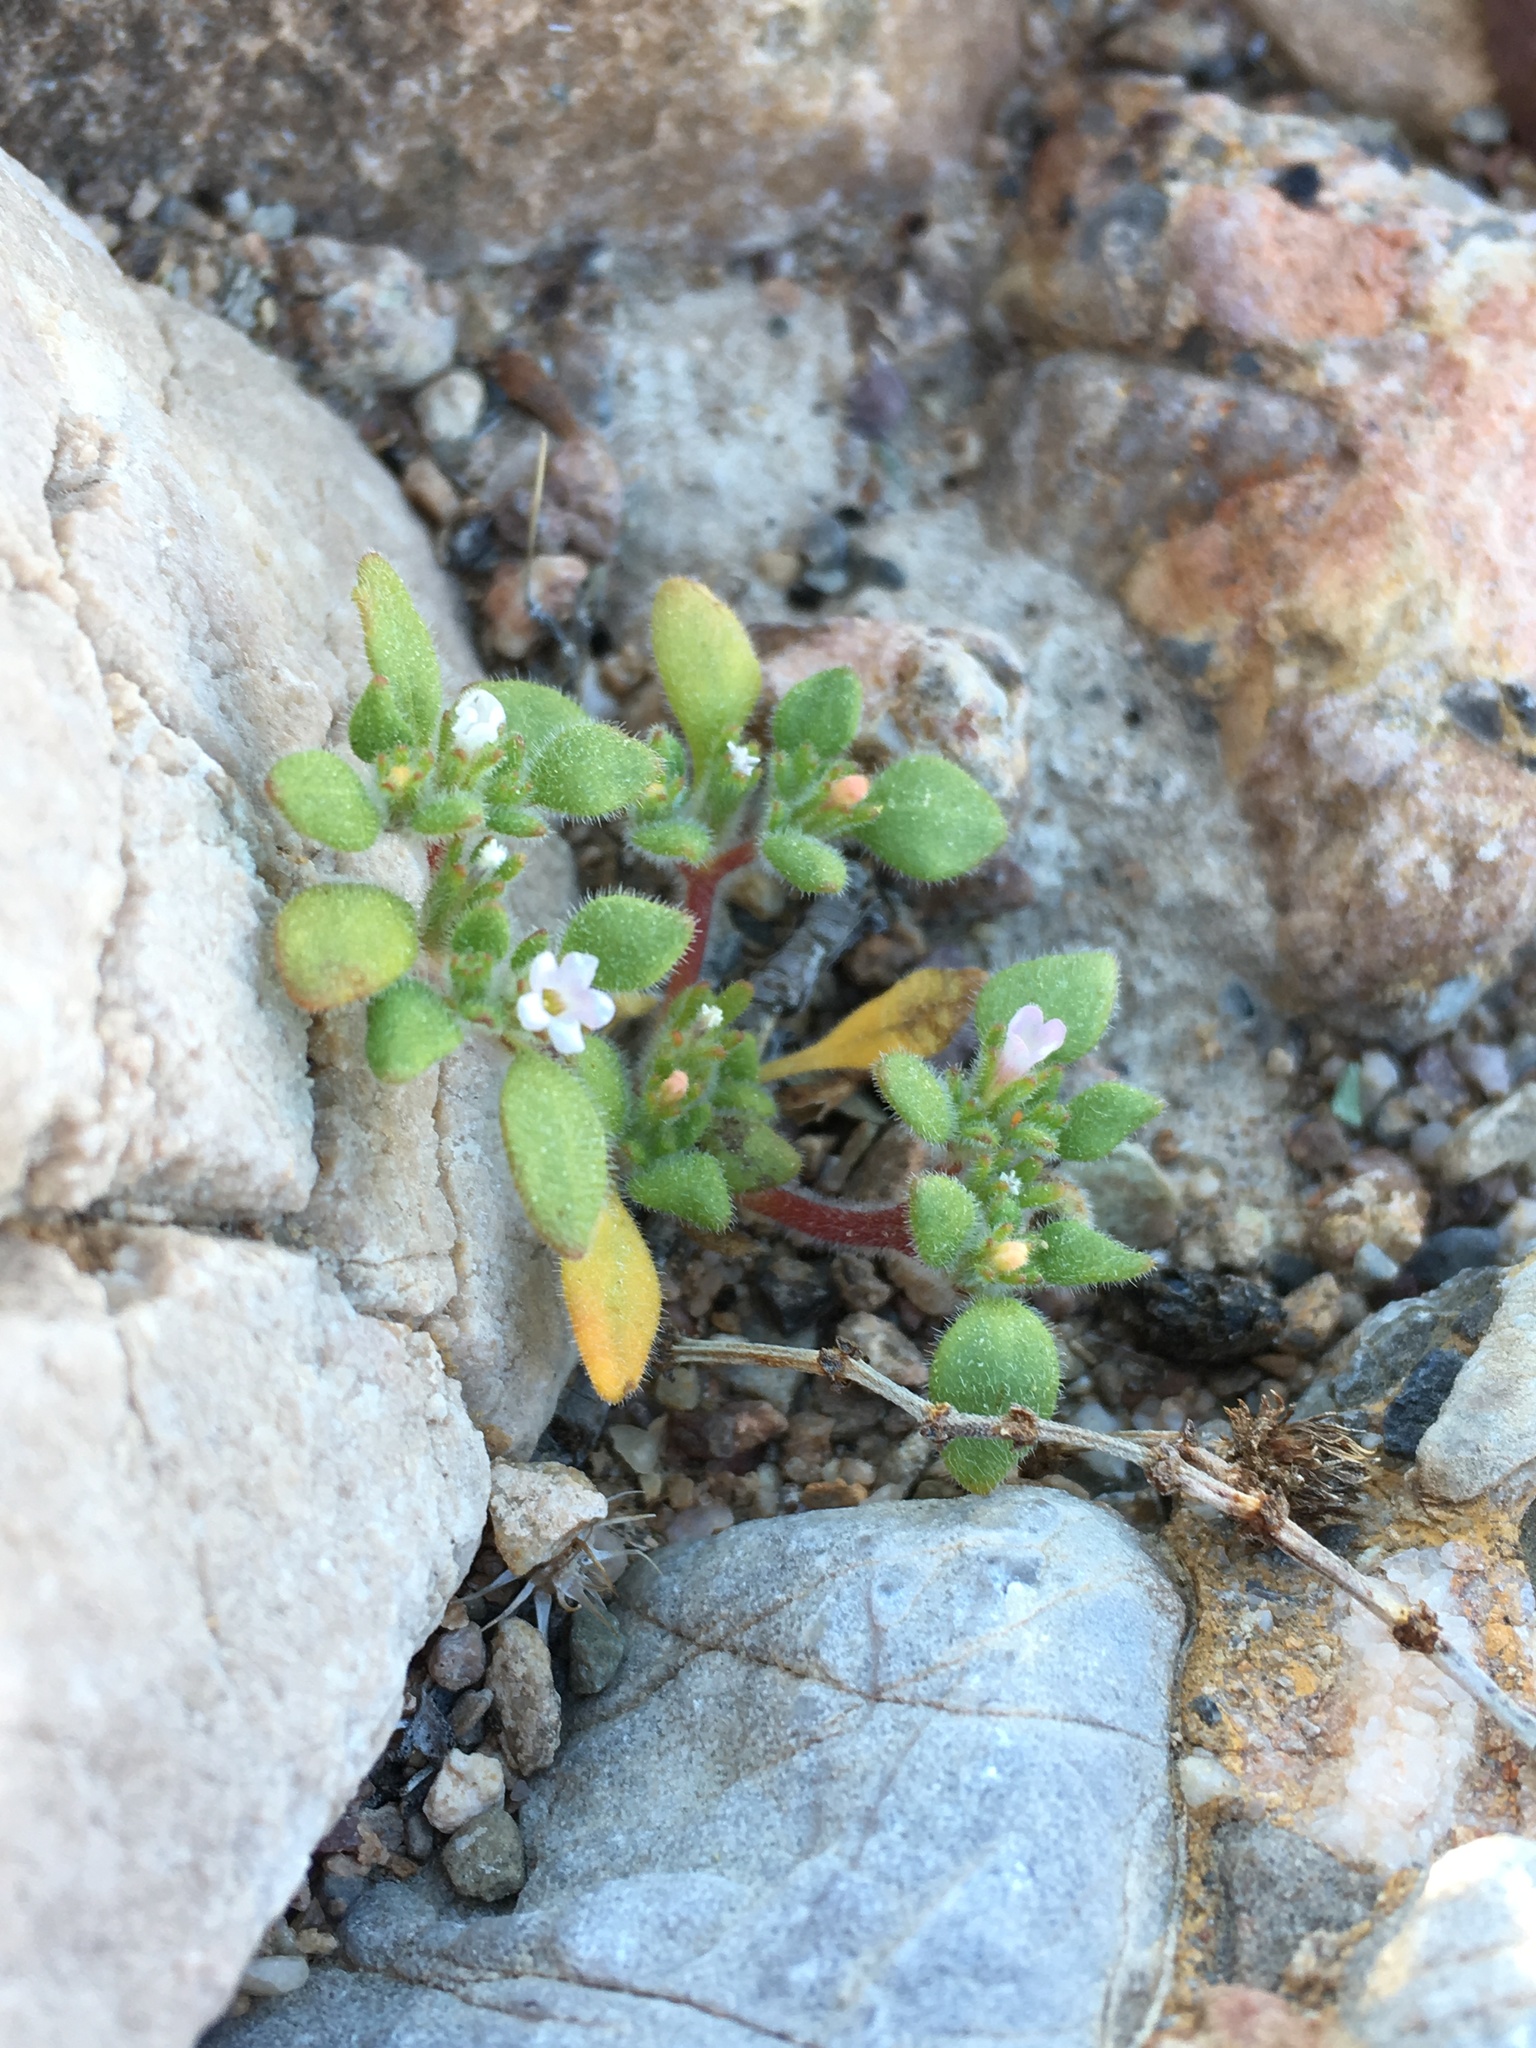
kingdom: Plantae
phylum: Tracheophyta
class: Magnoliopsida
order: Boraginales
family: Namaceae
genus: Nama
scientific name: Nama pusilla
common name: Eggleaf nama
